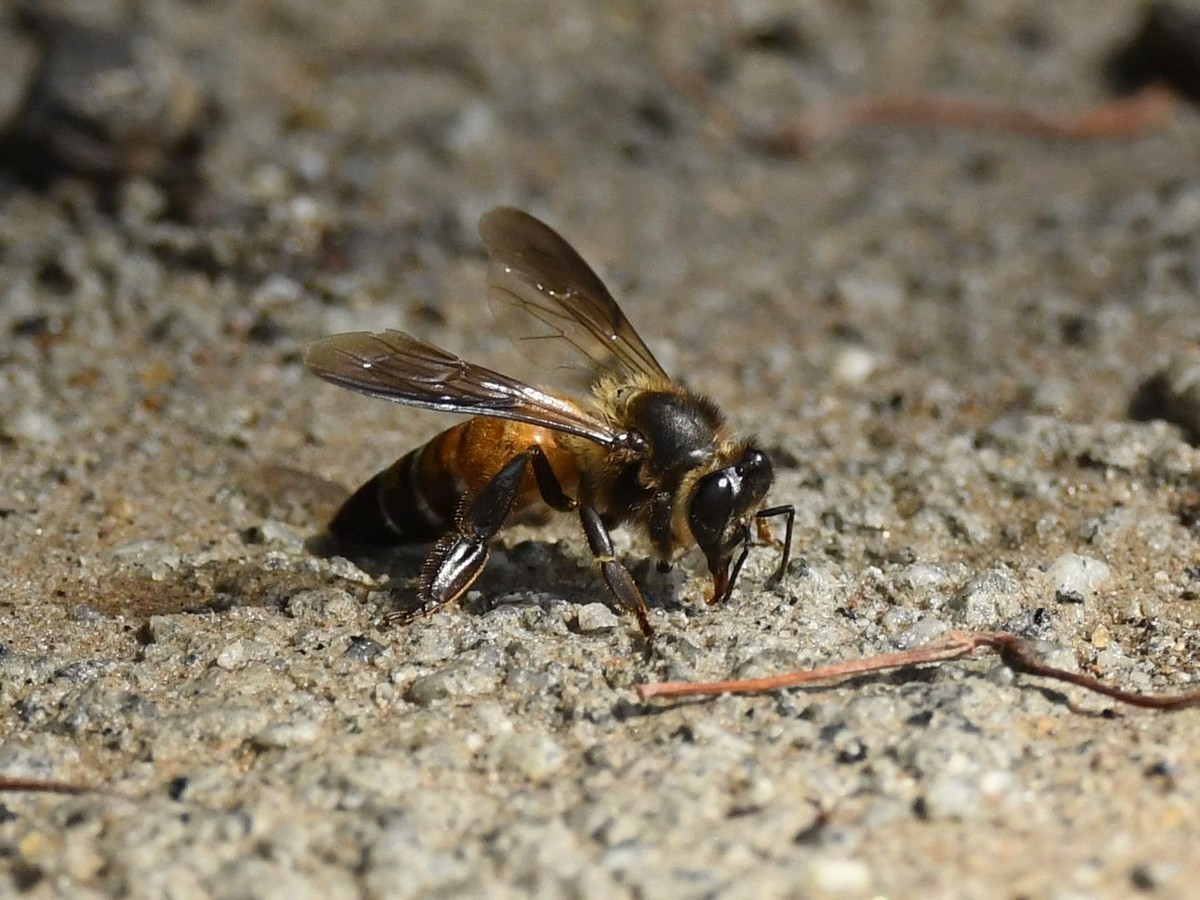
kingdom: Animalia
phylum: Arthropoda
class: Insecta
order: Hymenoptera
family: Apidae
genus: Apis
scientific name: Apis dorsata
